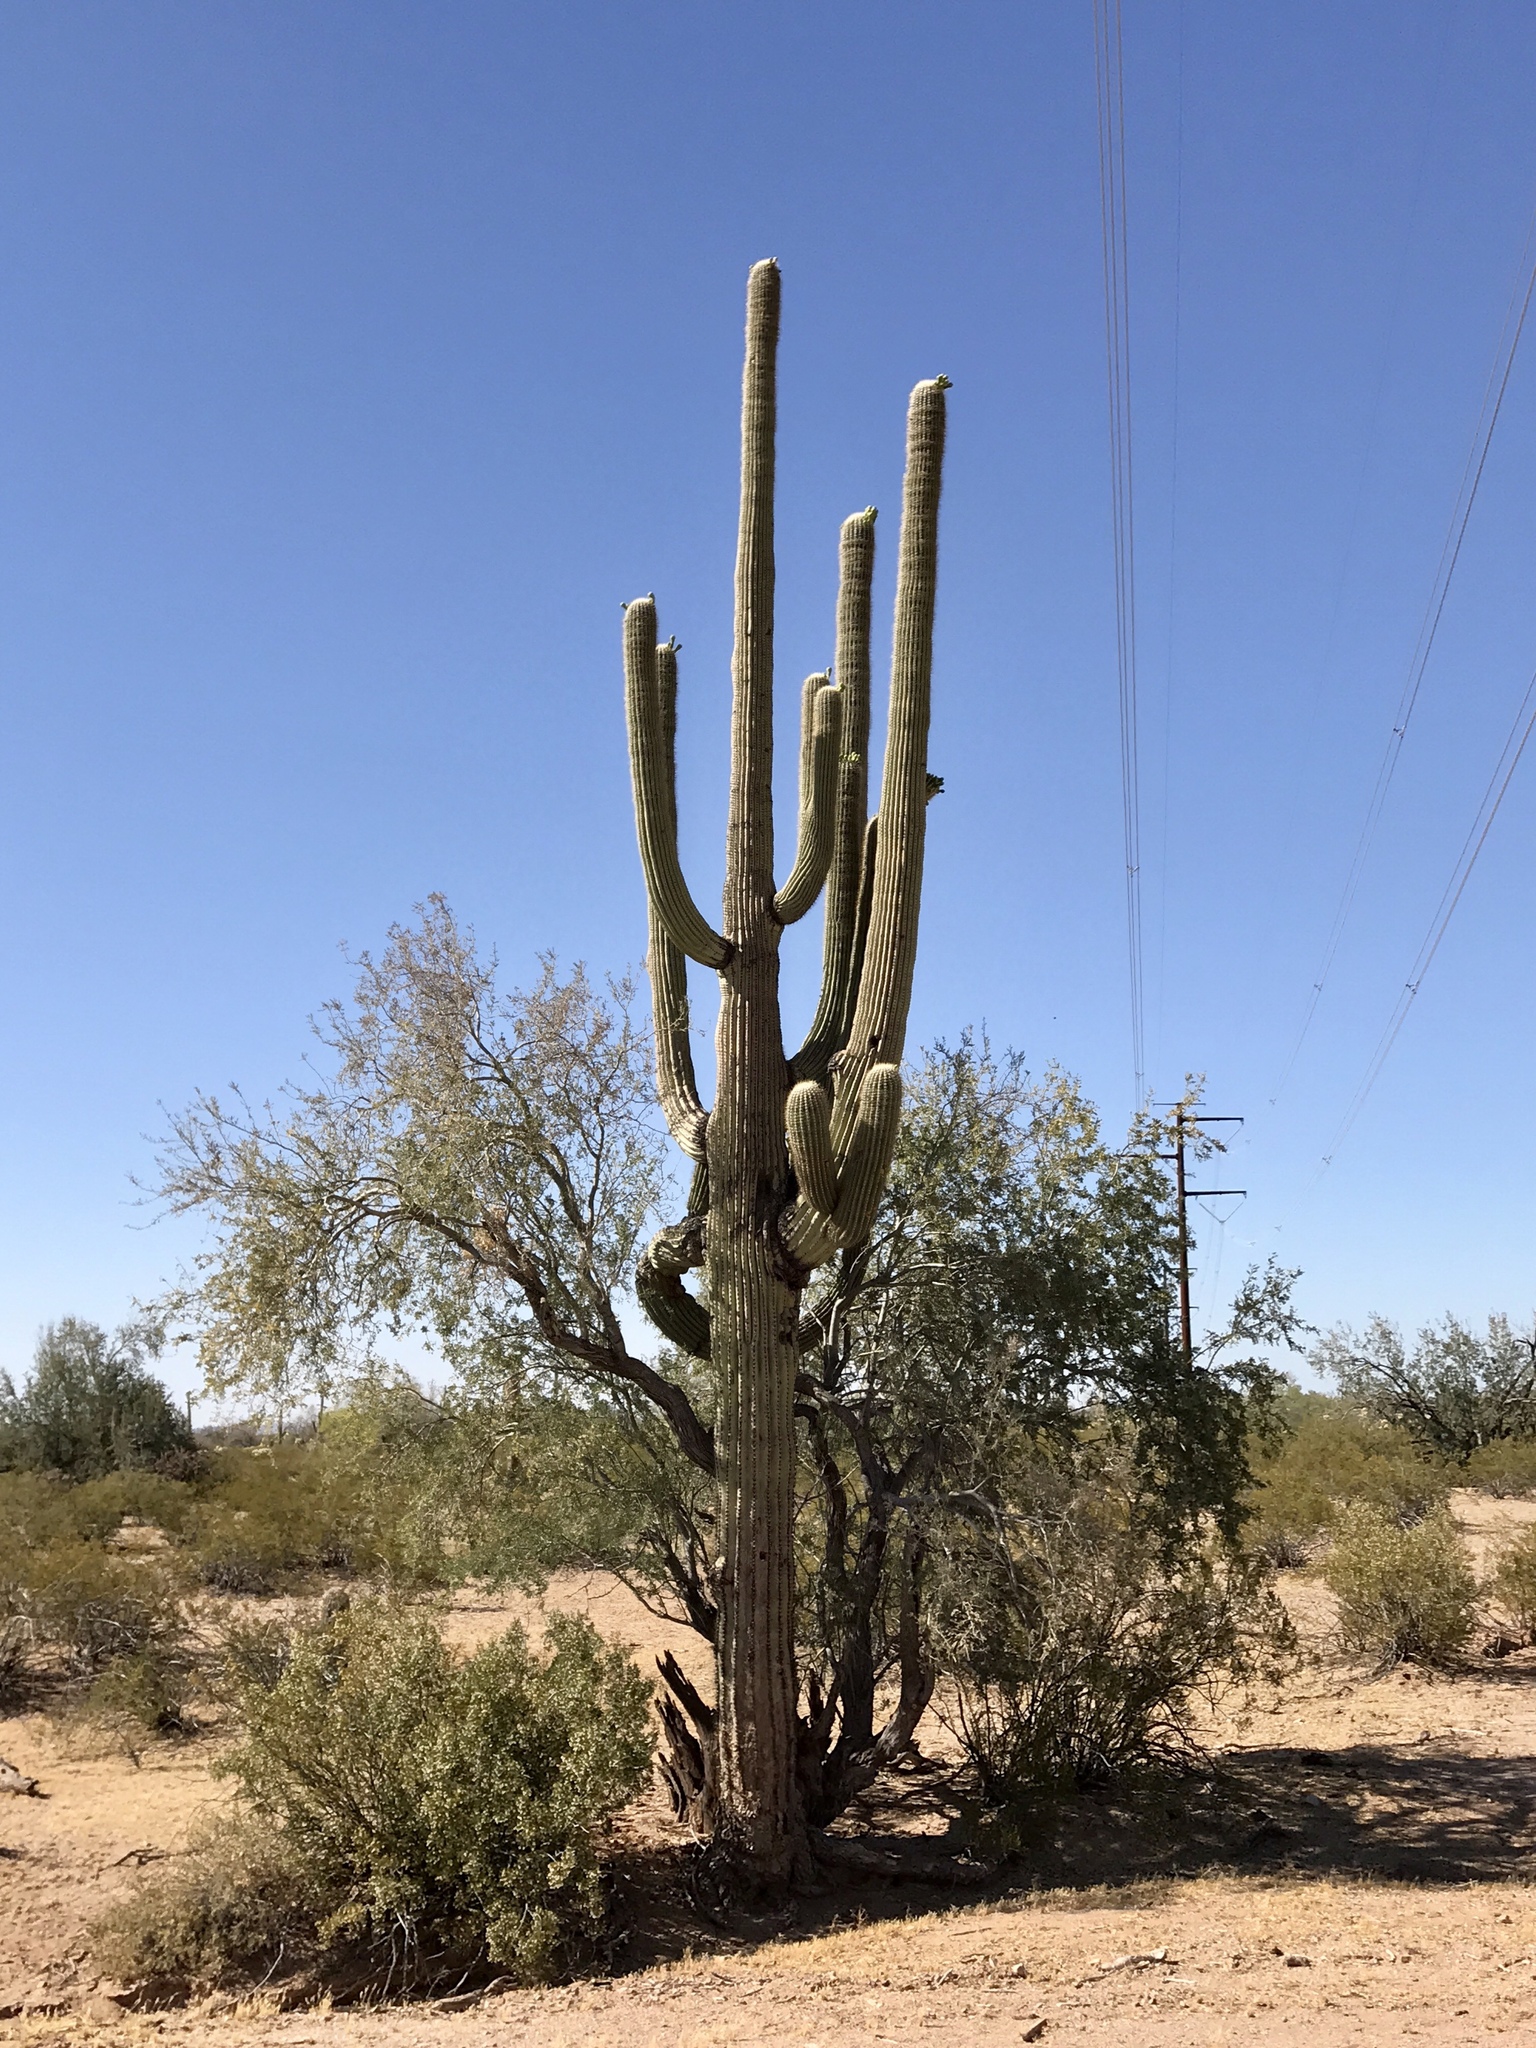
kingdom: Plantae
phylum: Tracheophyta
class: Magnoliopsida
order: Caryophyllales
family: Cactaceae
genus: Carnegiea
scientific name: Carnegiea gigantea
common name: Saguaro
